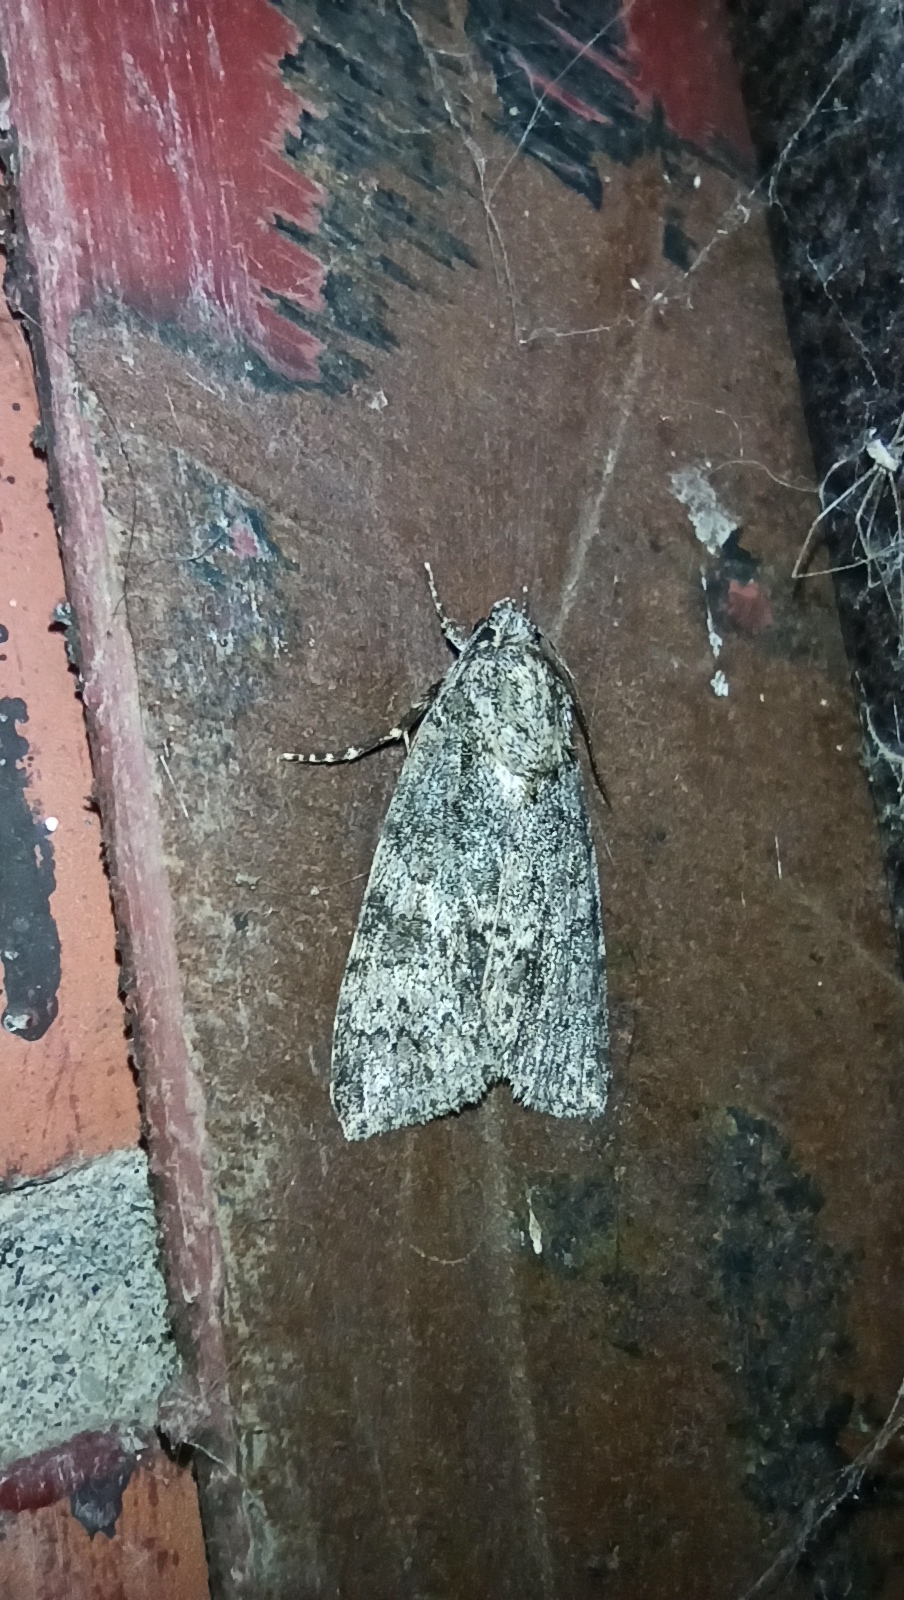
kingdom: Animalia
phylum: Arthropoda
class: Insecta
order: Lepidoptera
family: Noctuidae
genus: Acronicta
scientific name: Acronicta rumicis
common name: Knot grass
